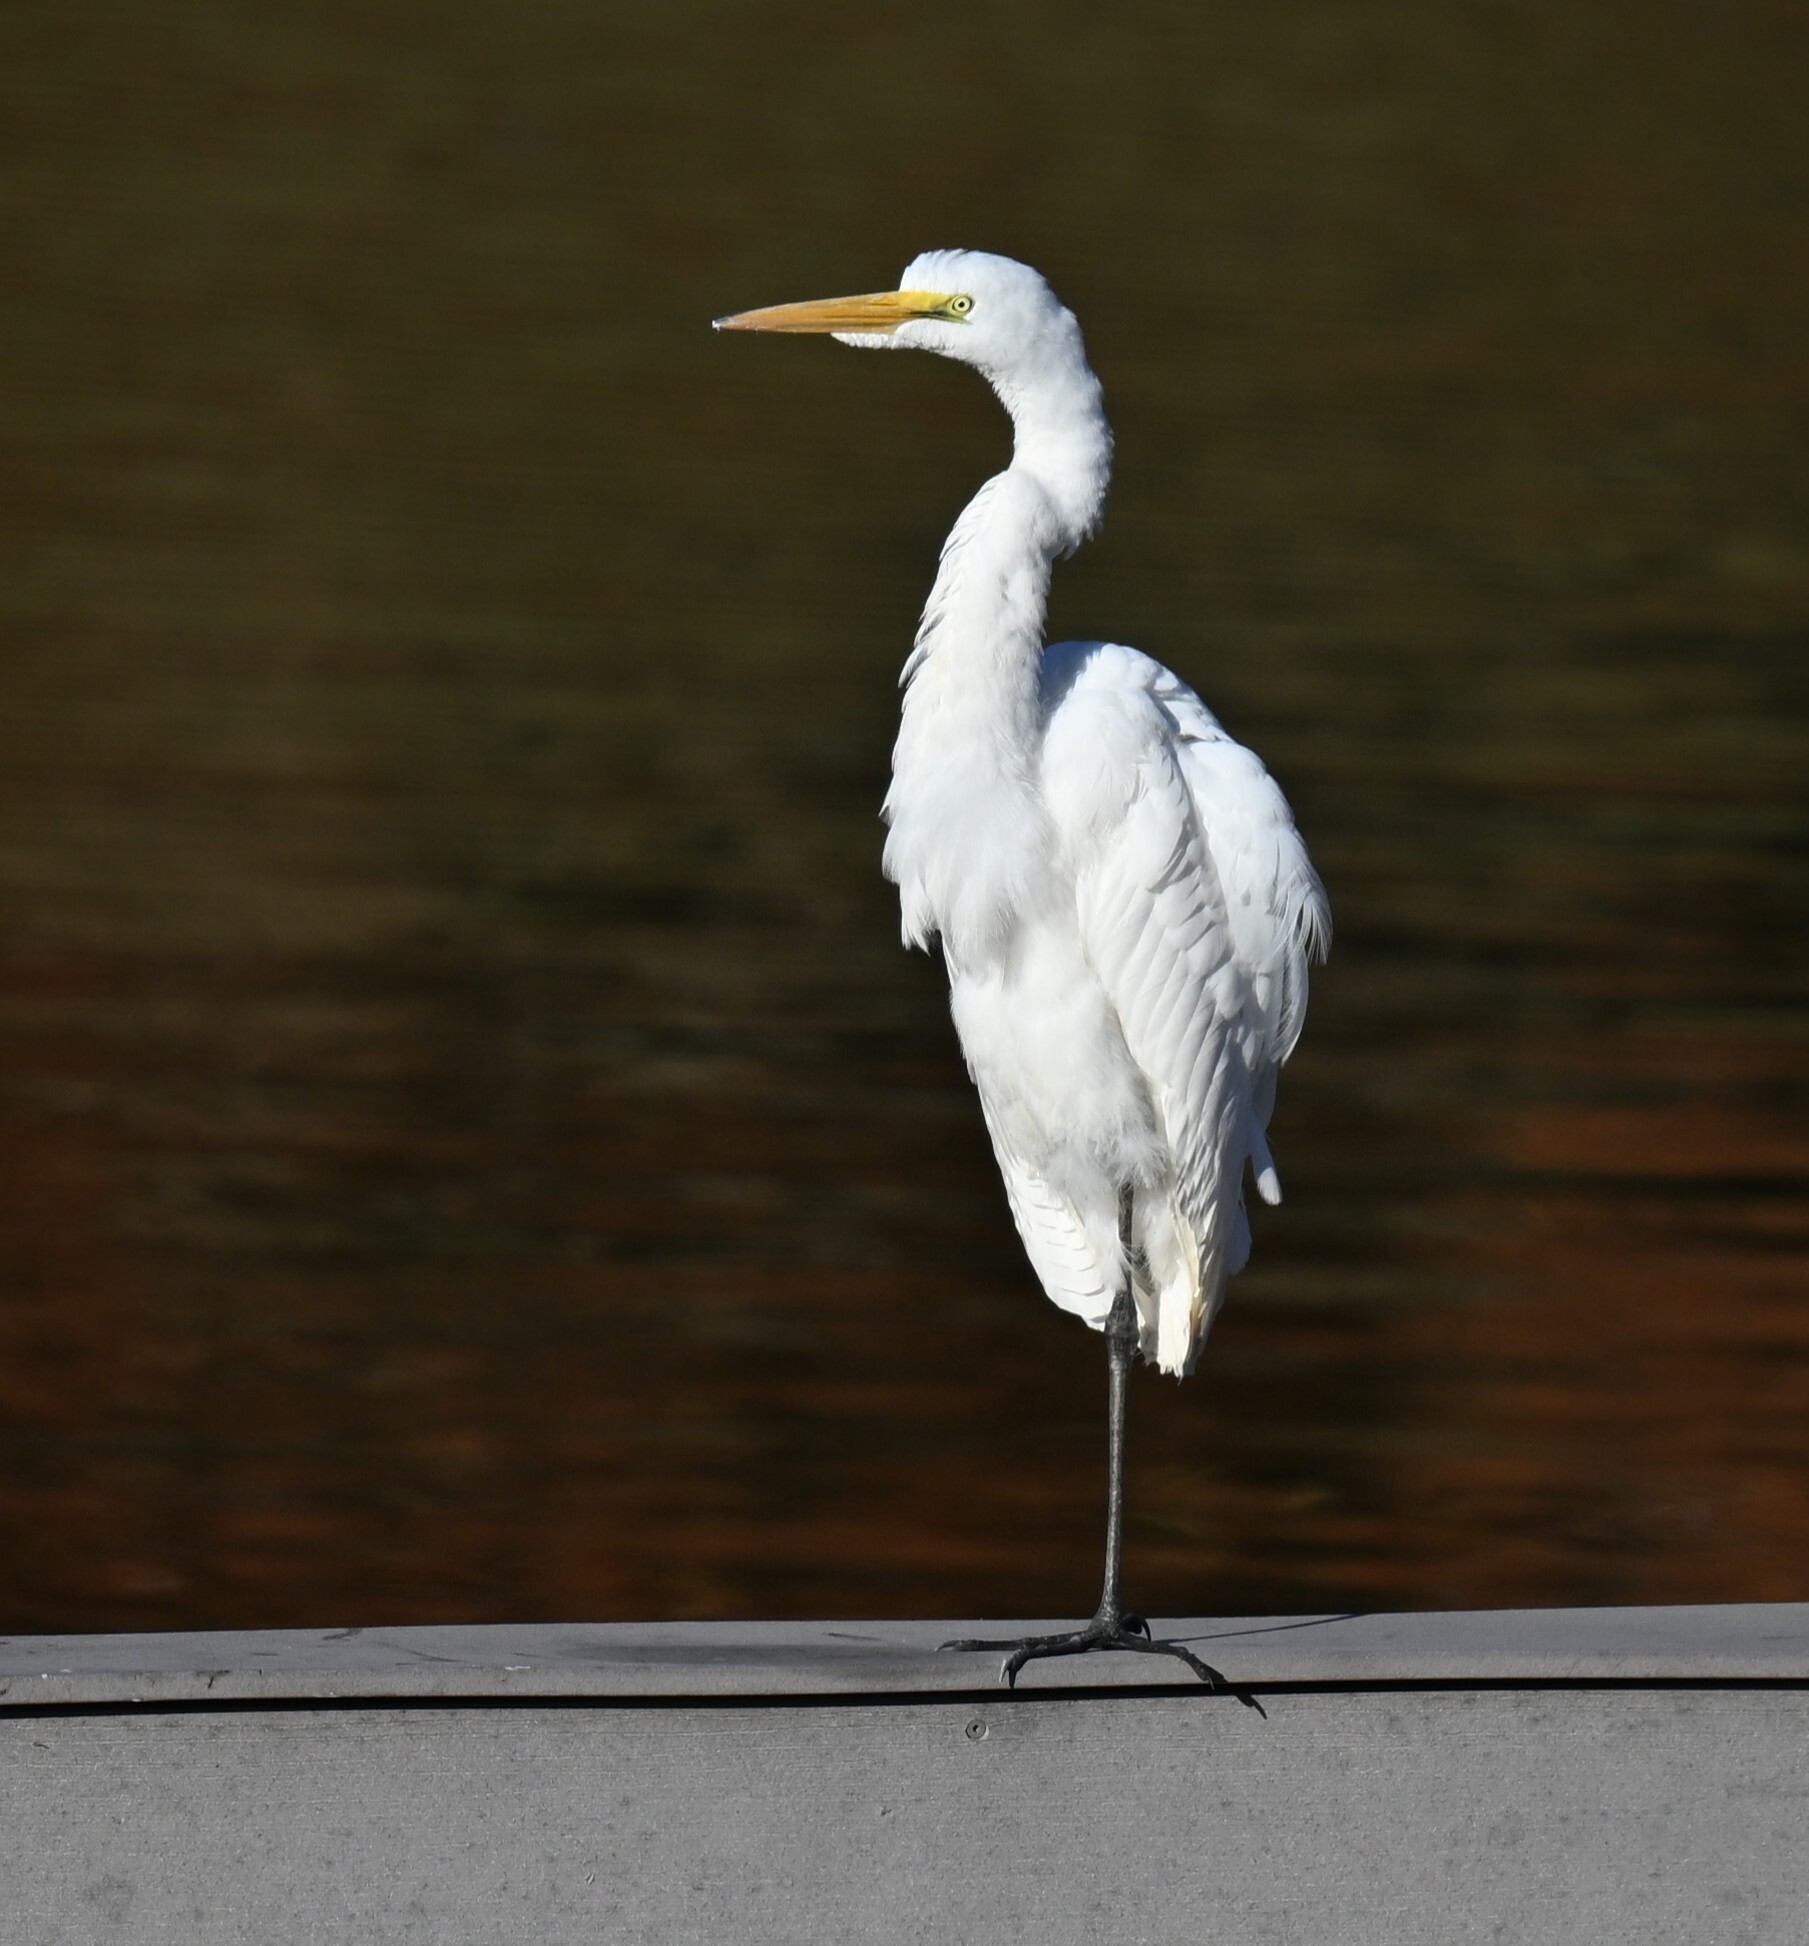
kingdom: Animalia
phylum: Chordata
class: Aves
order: Pelecaniformes
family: Ardeidae
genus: Ardea
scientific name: Ardea alba
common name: Great egret
